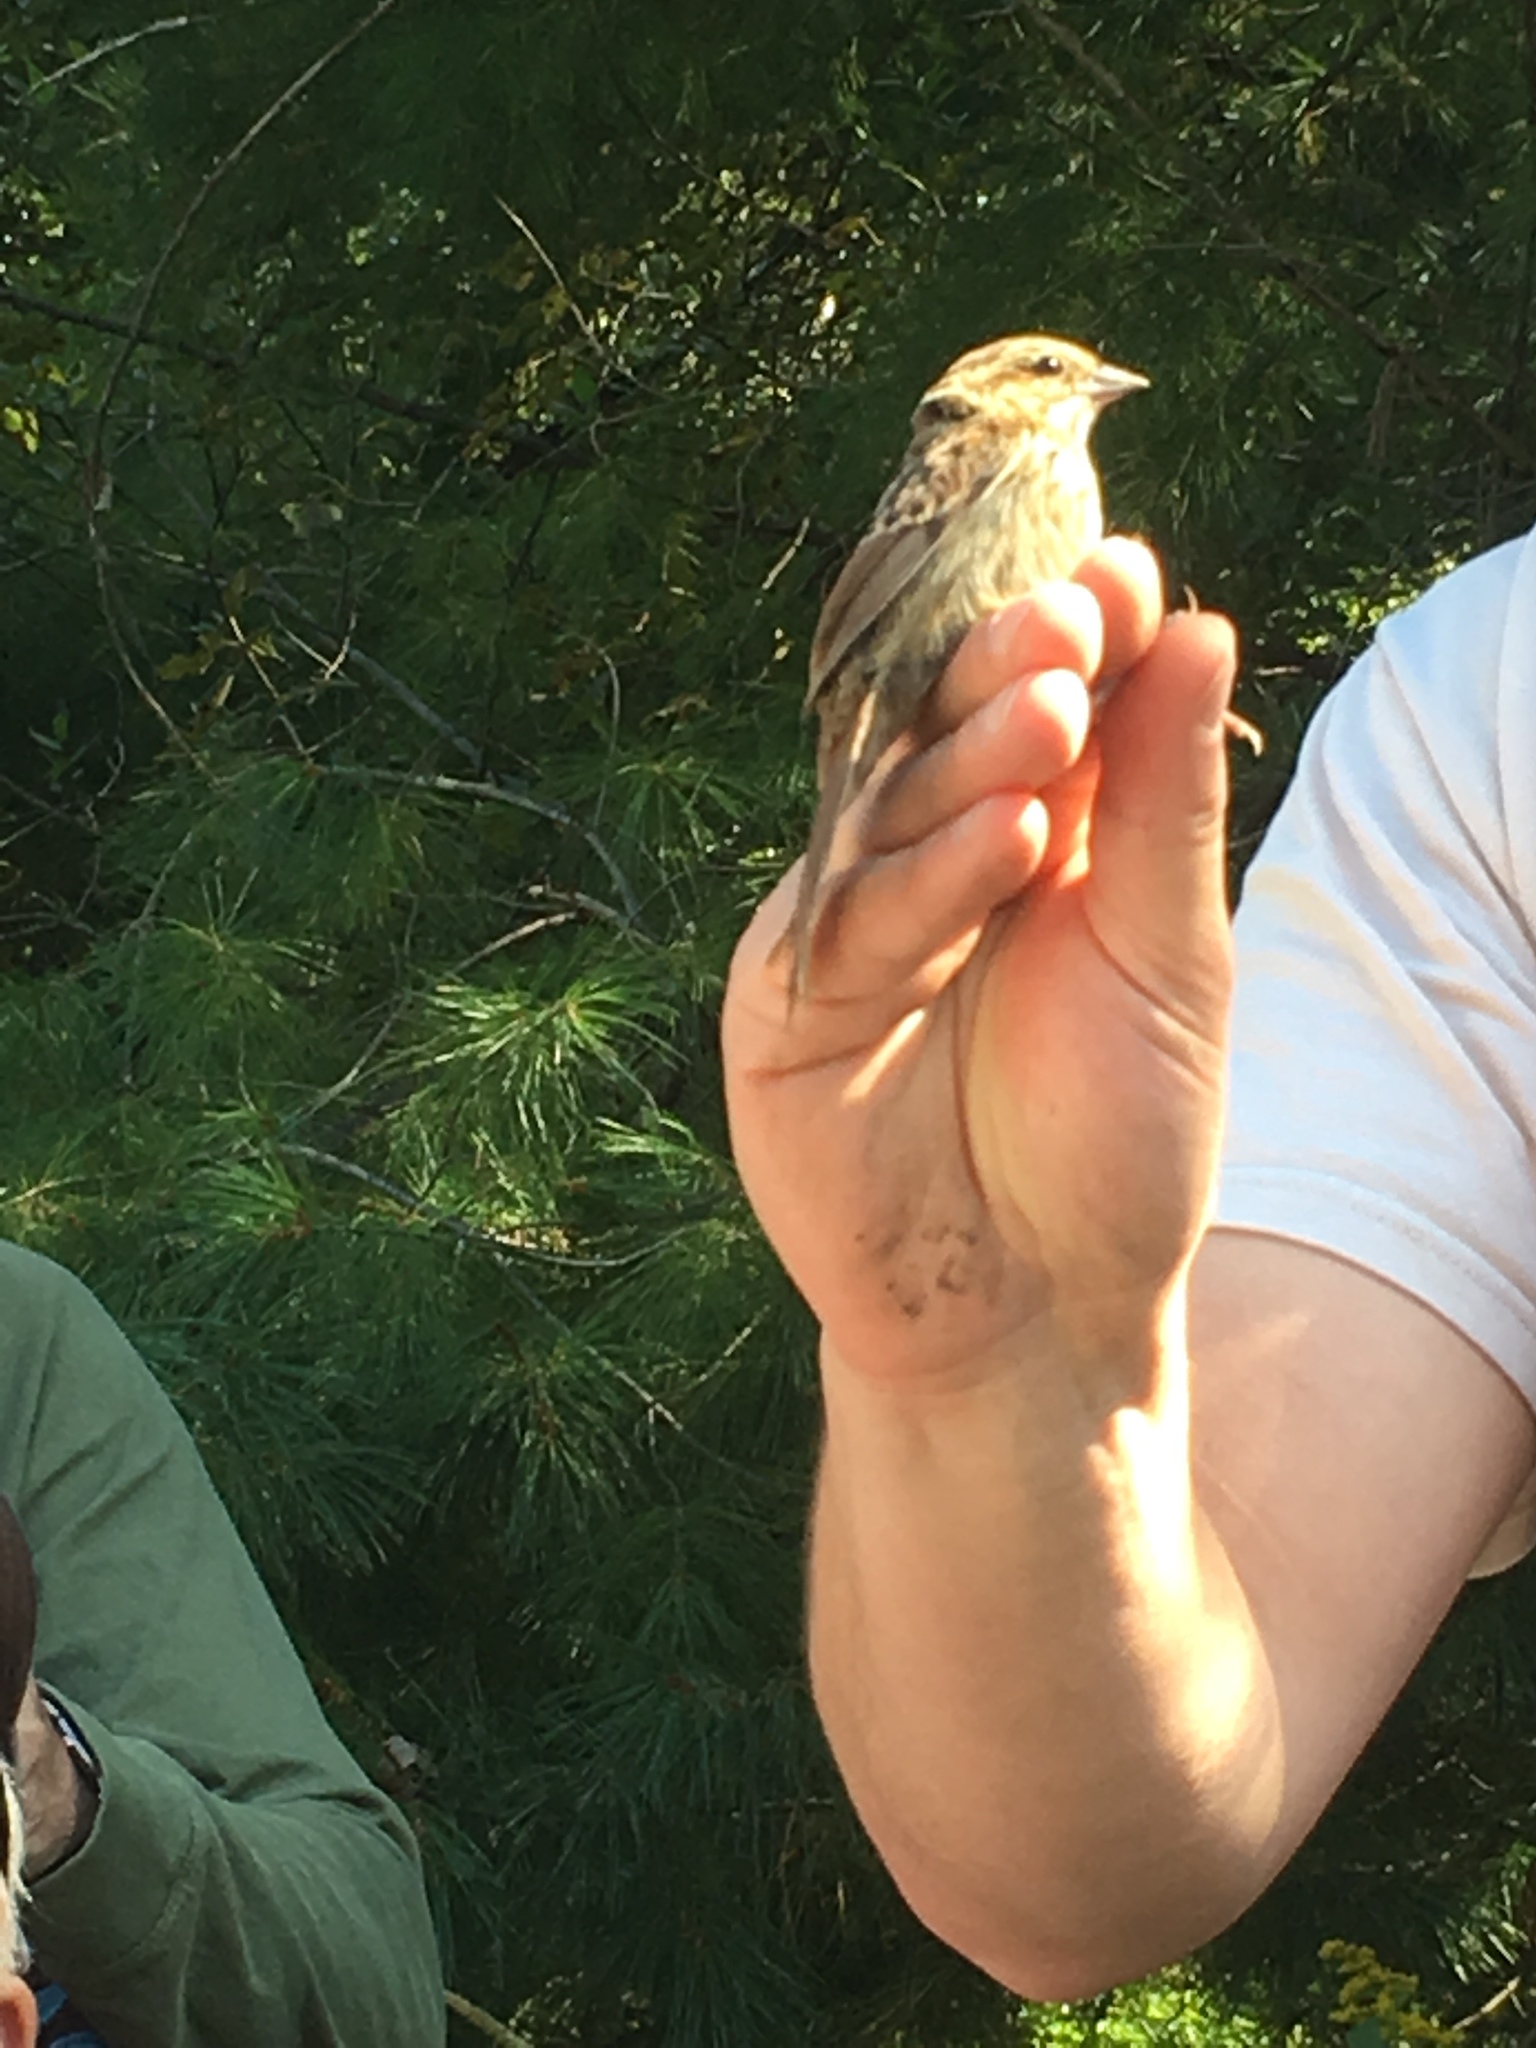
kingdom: Animalia
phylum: Chordata
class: Aves
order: Passeriformes
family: Passerellidae
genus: Melospiza
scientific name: Melospiza melodia
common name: Song sparrow
